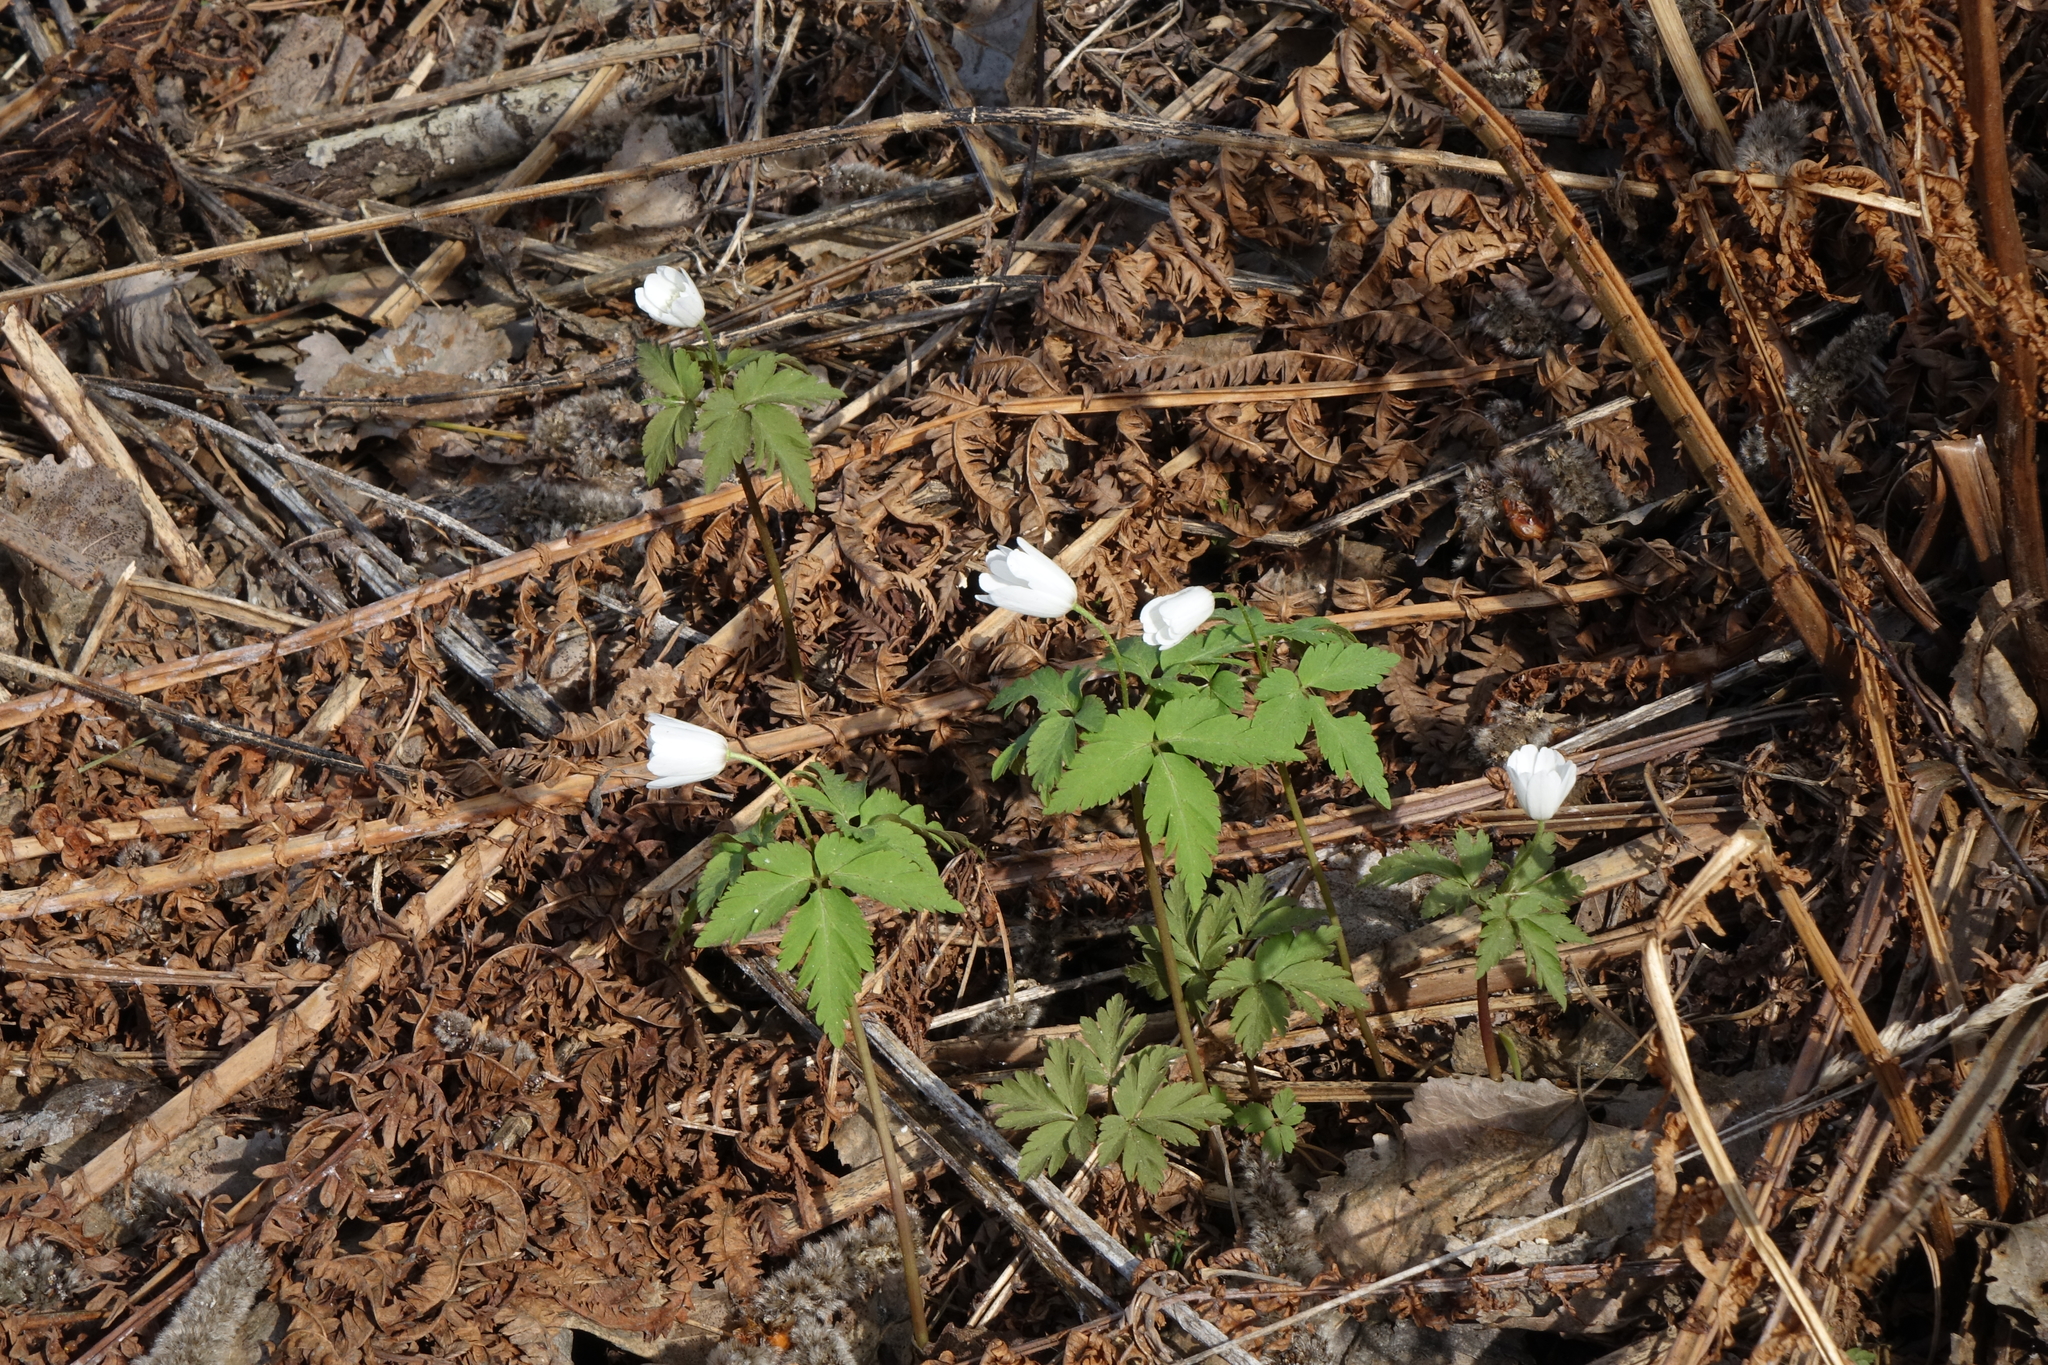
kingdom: Plantae
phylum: Tracheophyta
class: Magnoliopsida
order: Ranunculales
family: Ranunculaceae
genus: Anemone
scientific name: Anemone altaica
